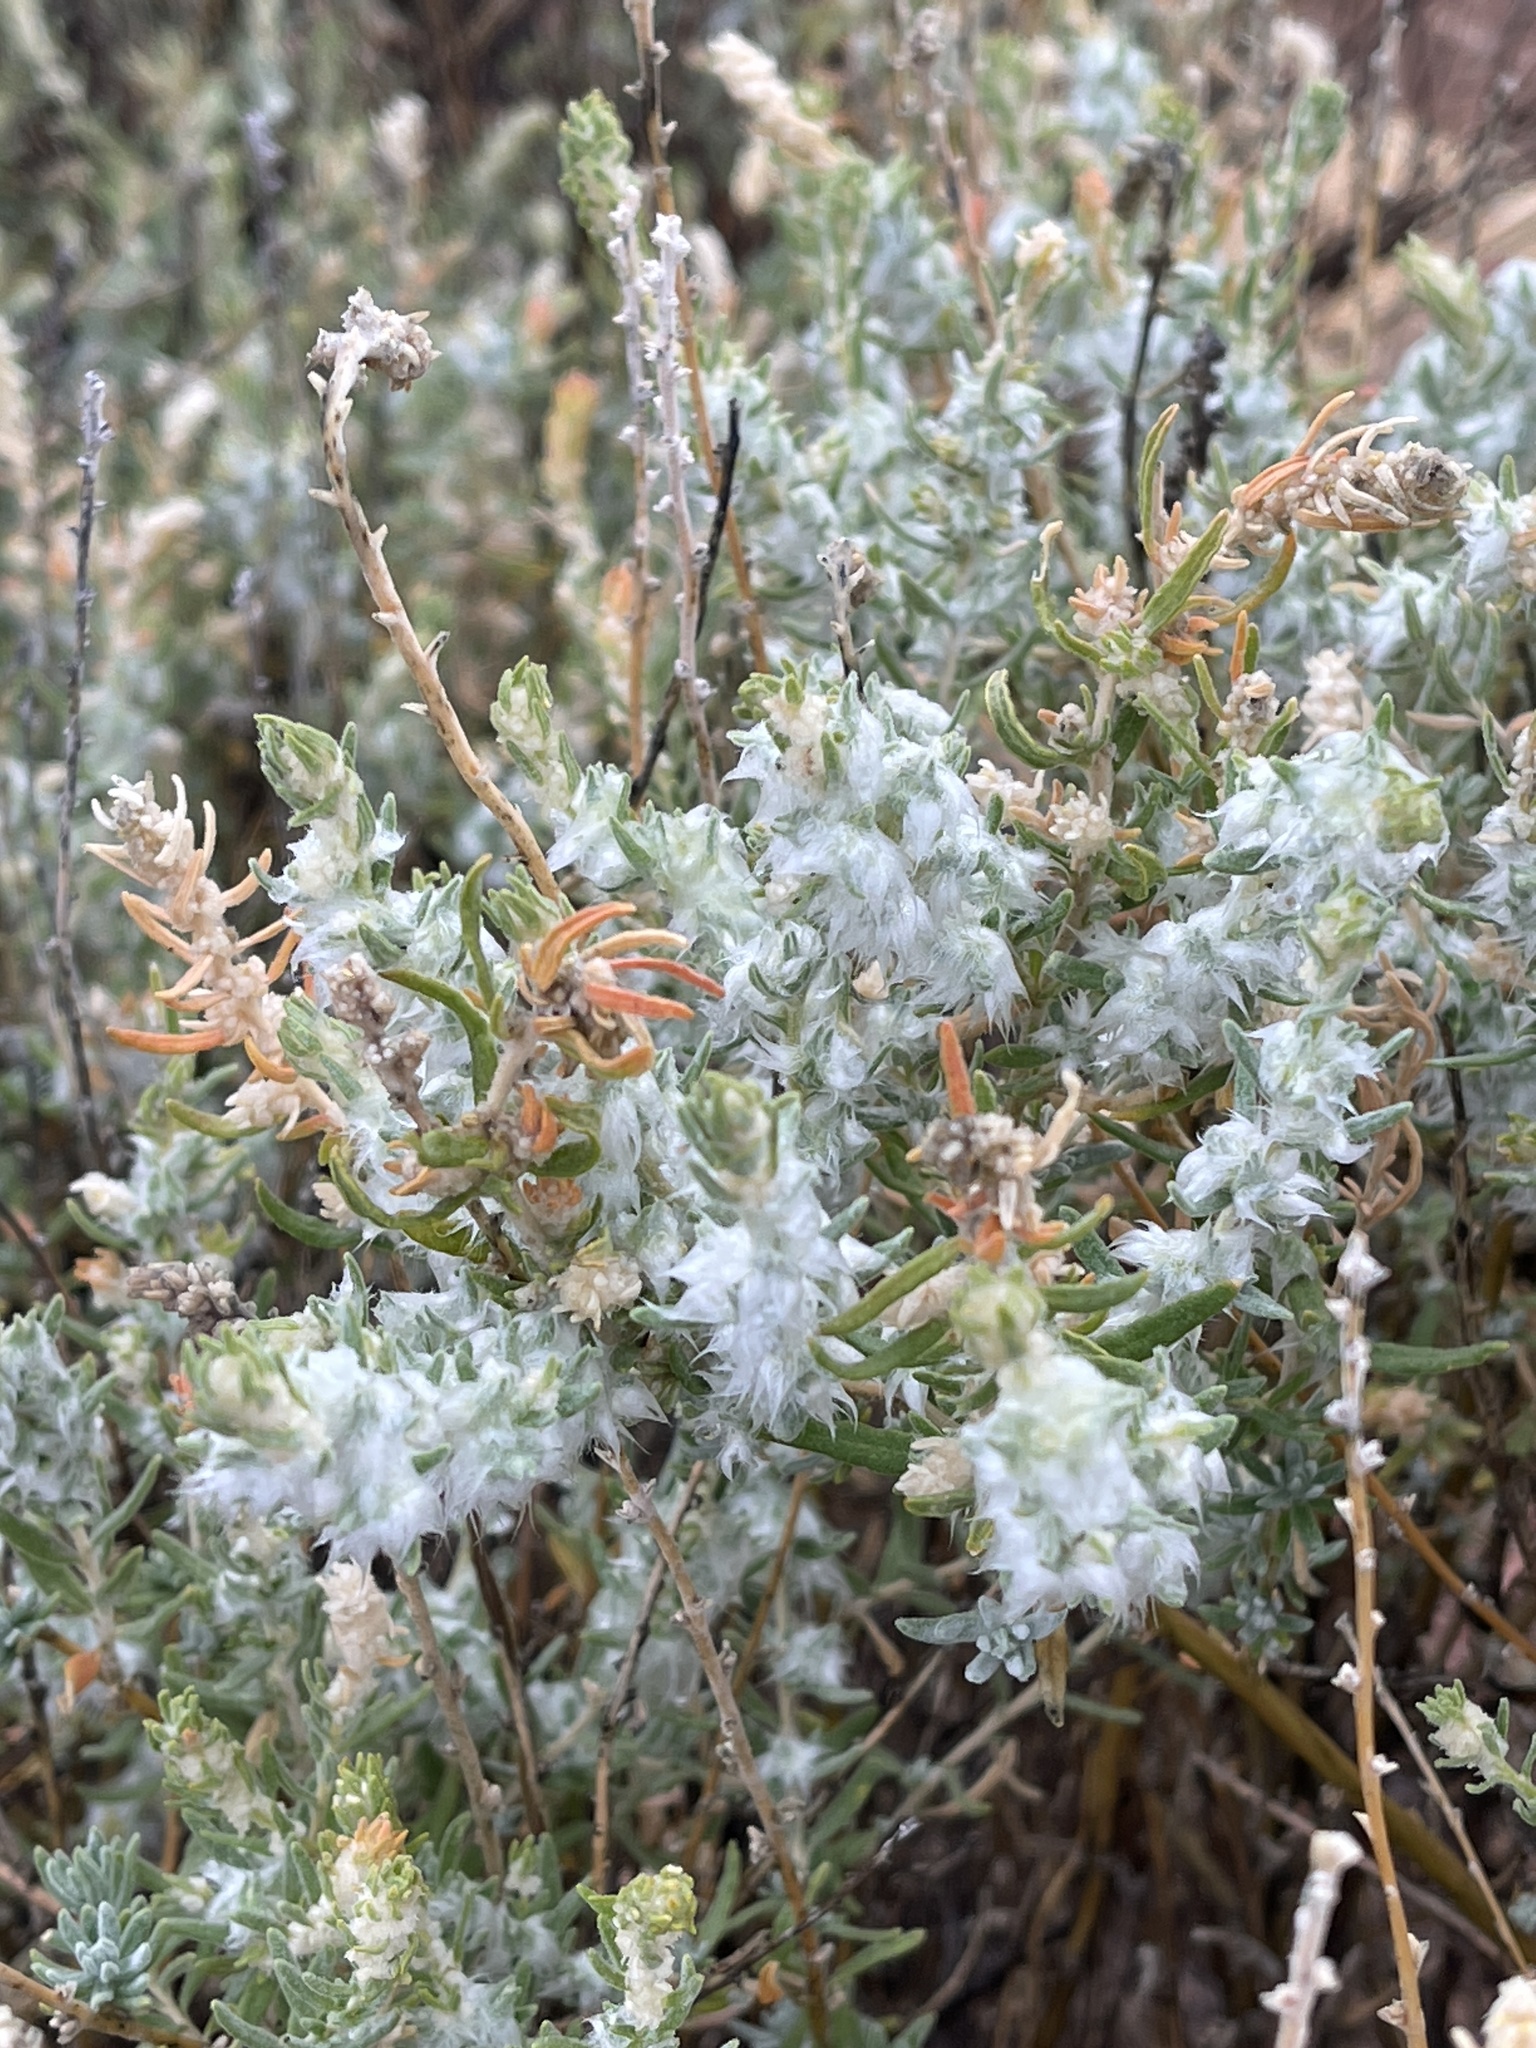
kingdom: Plantae
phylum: Tracheophyta
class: Magnoliopsida
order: Caryophyllales
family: Amaranthaceae
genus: Krascheninnikovia
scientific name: Krascheninnikovia lanata
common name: Winterfat
